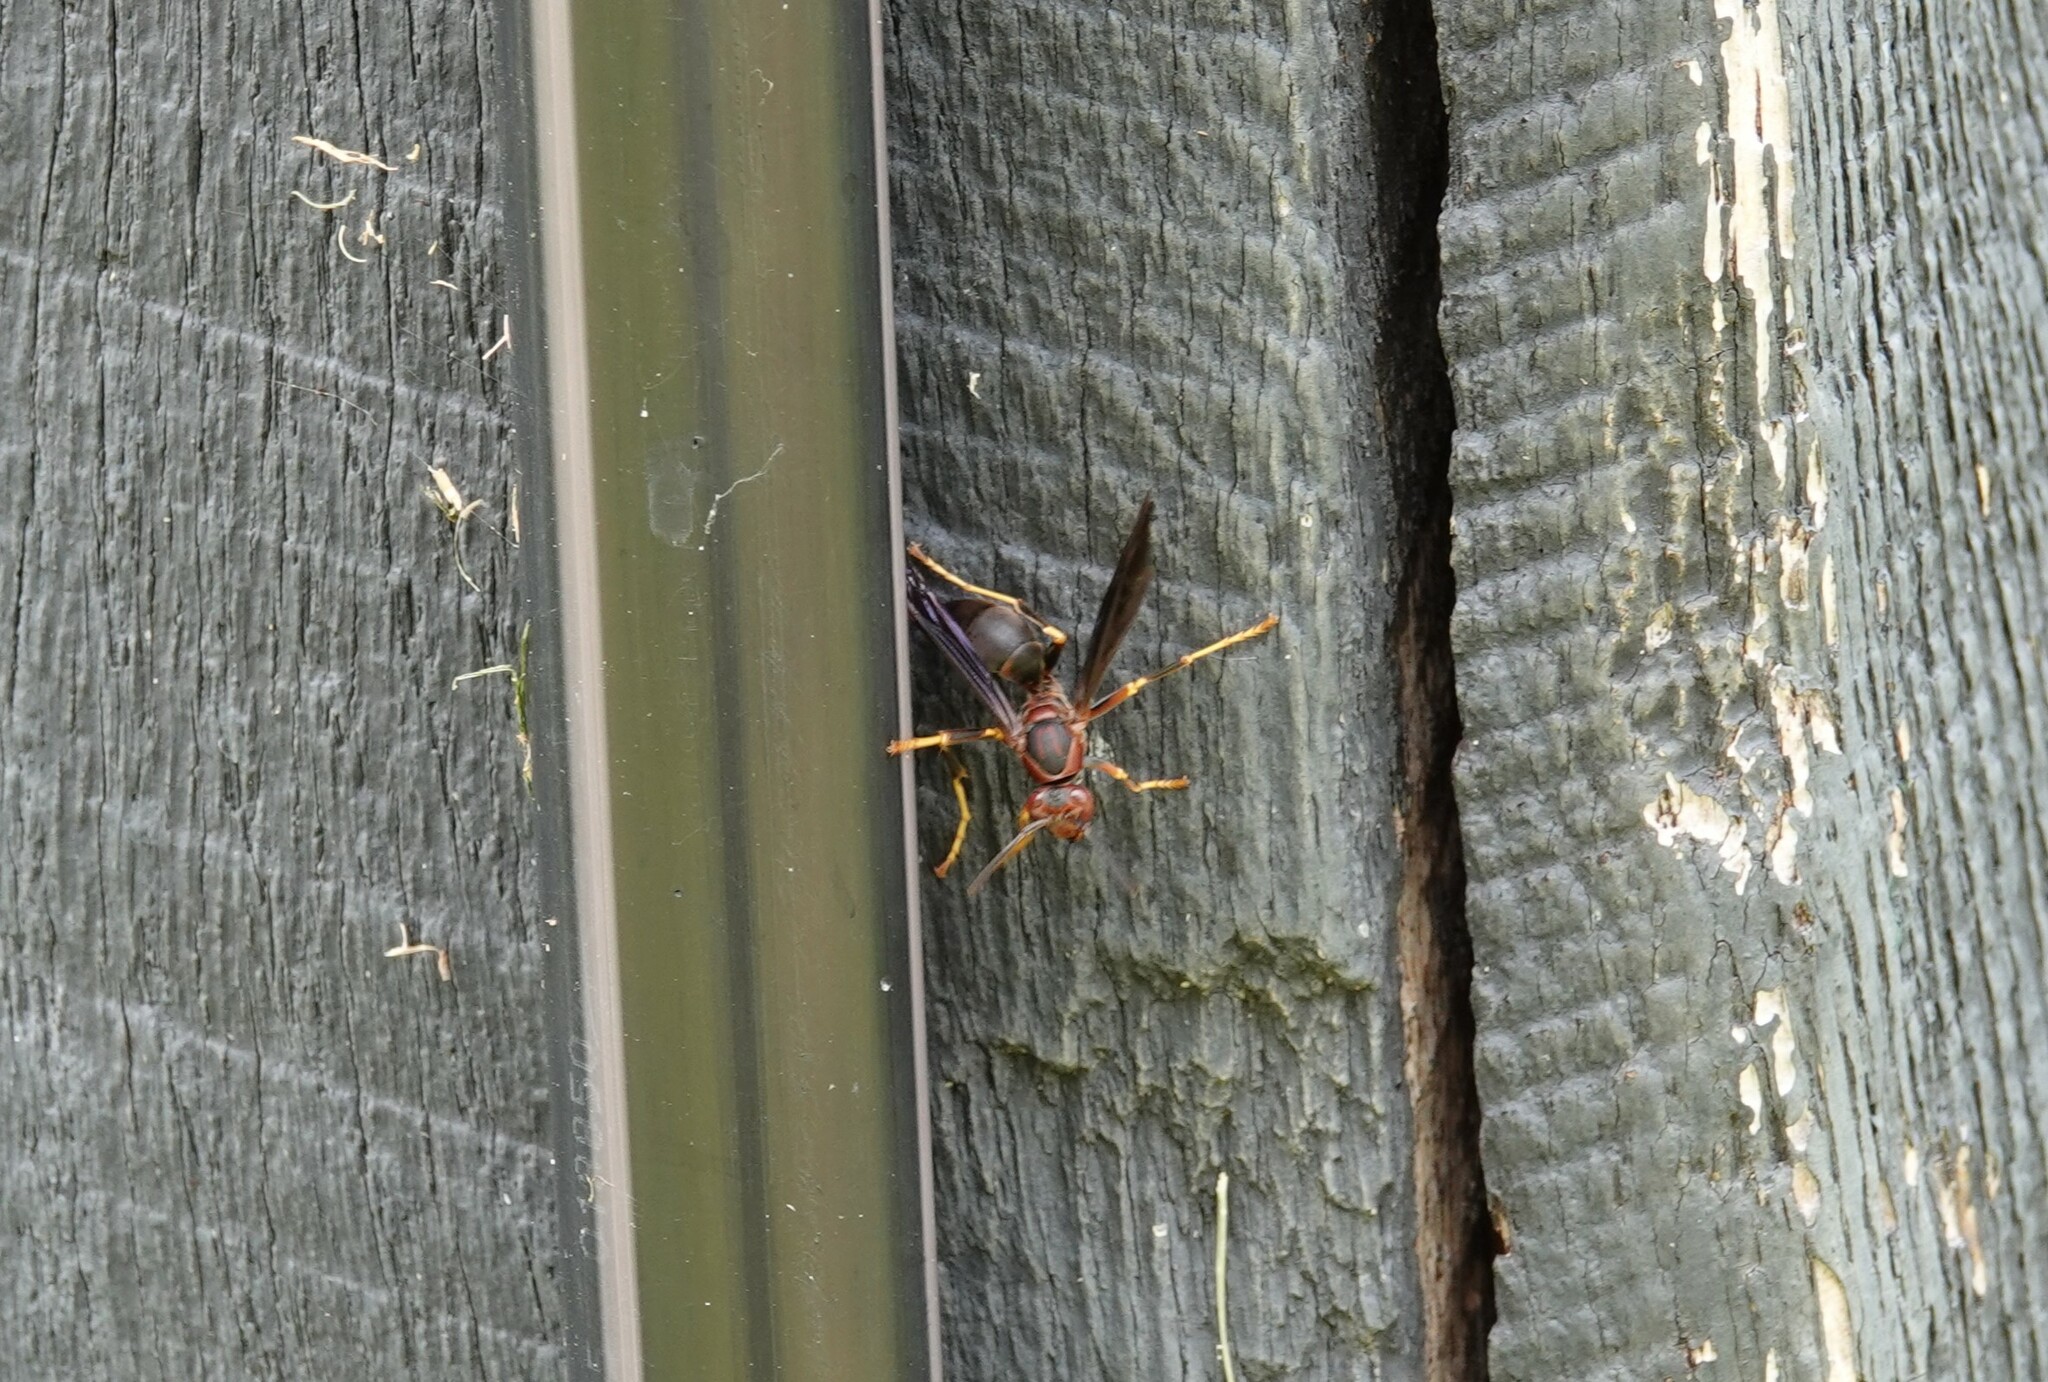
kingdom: Animalia
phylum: Arthropoda
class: Insecta
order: Hymenoptera
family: Eumenidae
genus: Polistes
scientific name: Polistes metricus
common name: Metric paper wasp
